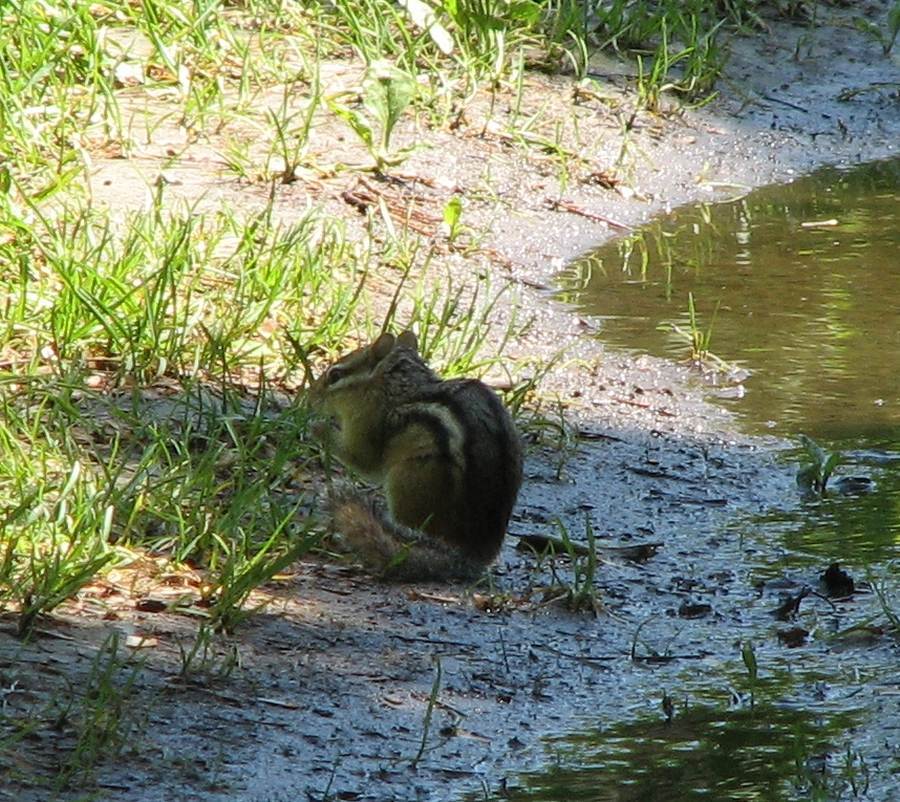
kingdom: Animalia
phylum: Chordata
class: Mammalia
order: Rodentia
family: Sciuridae
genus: Tamias
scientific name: Tamias striatus
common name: Eastern chipmunk
